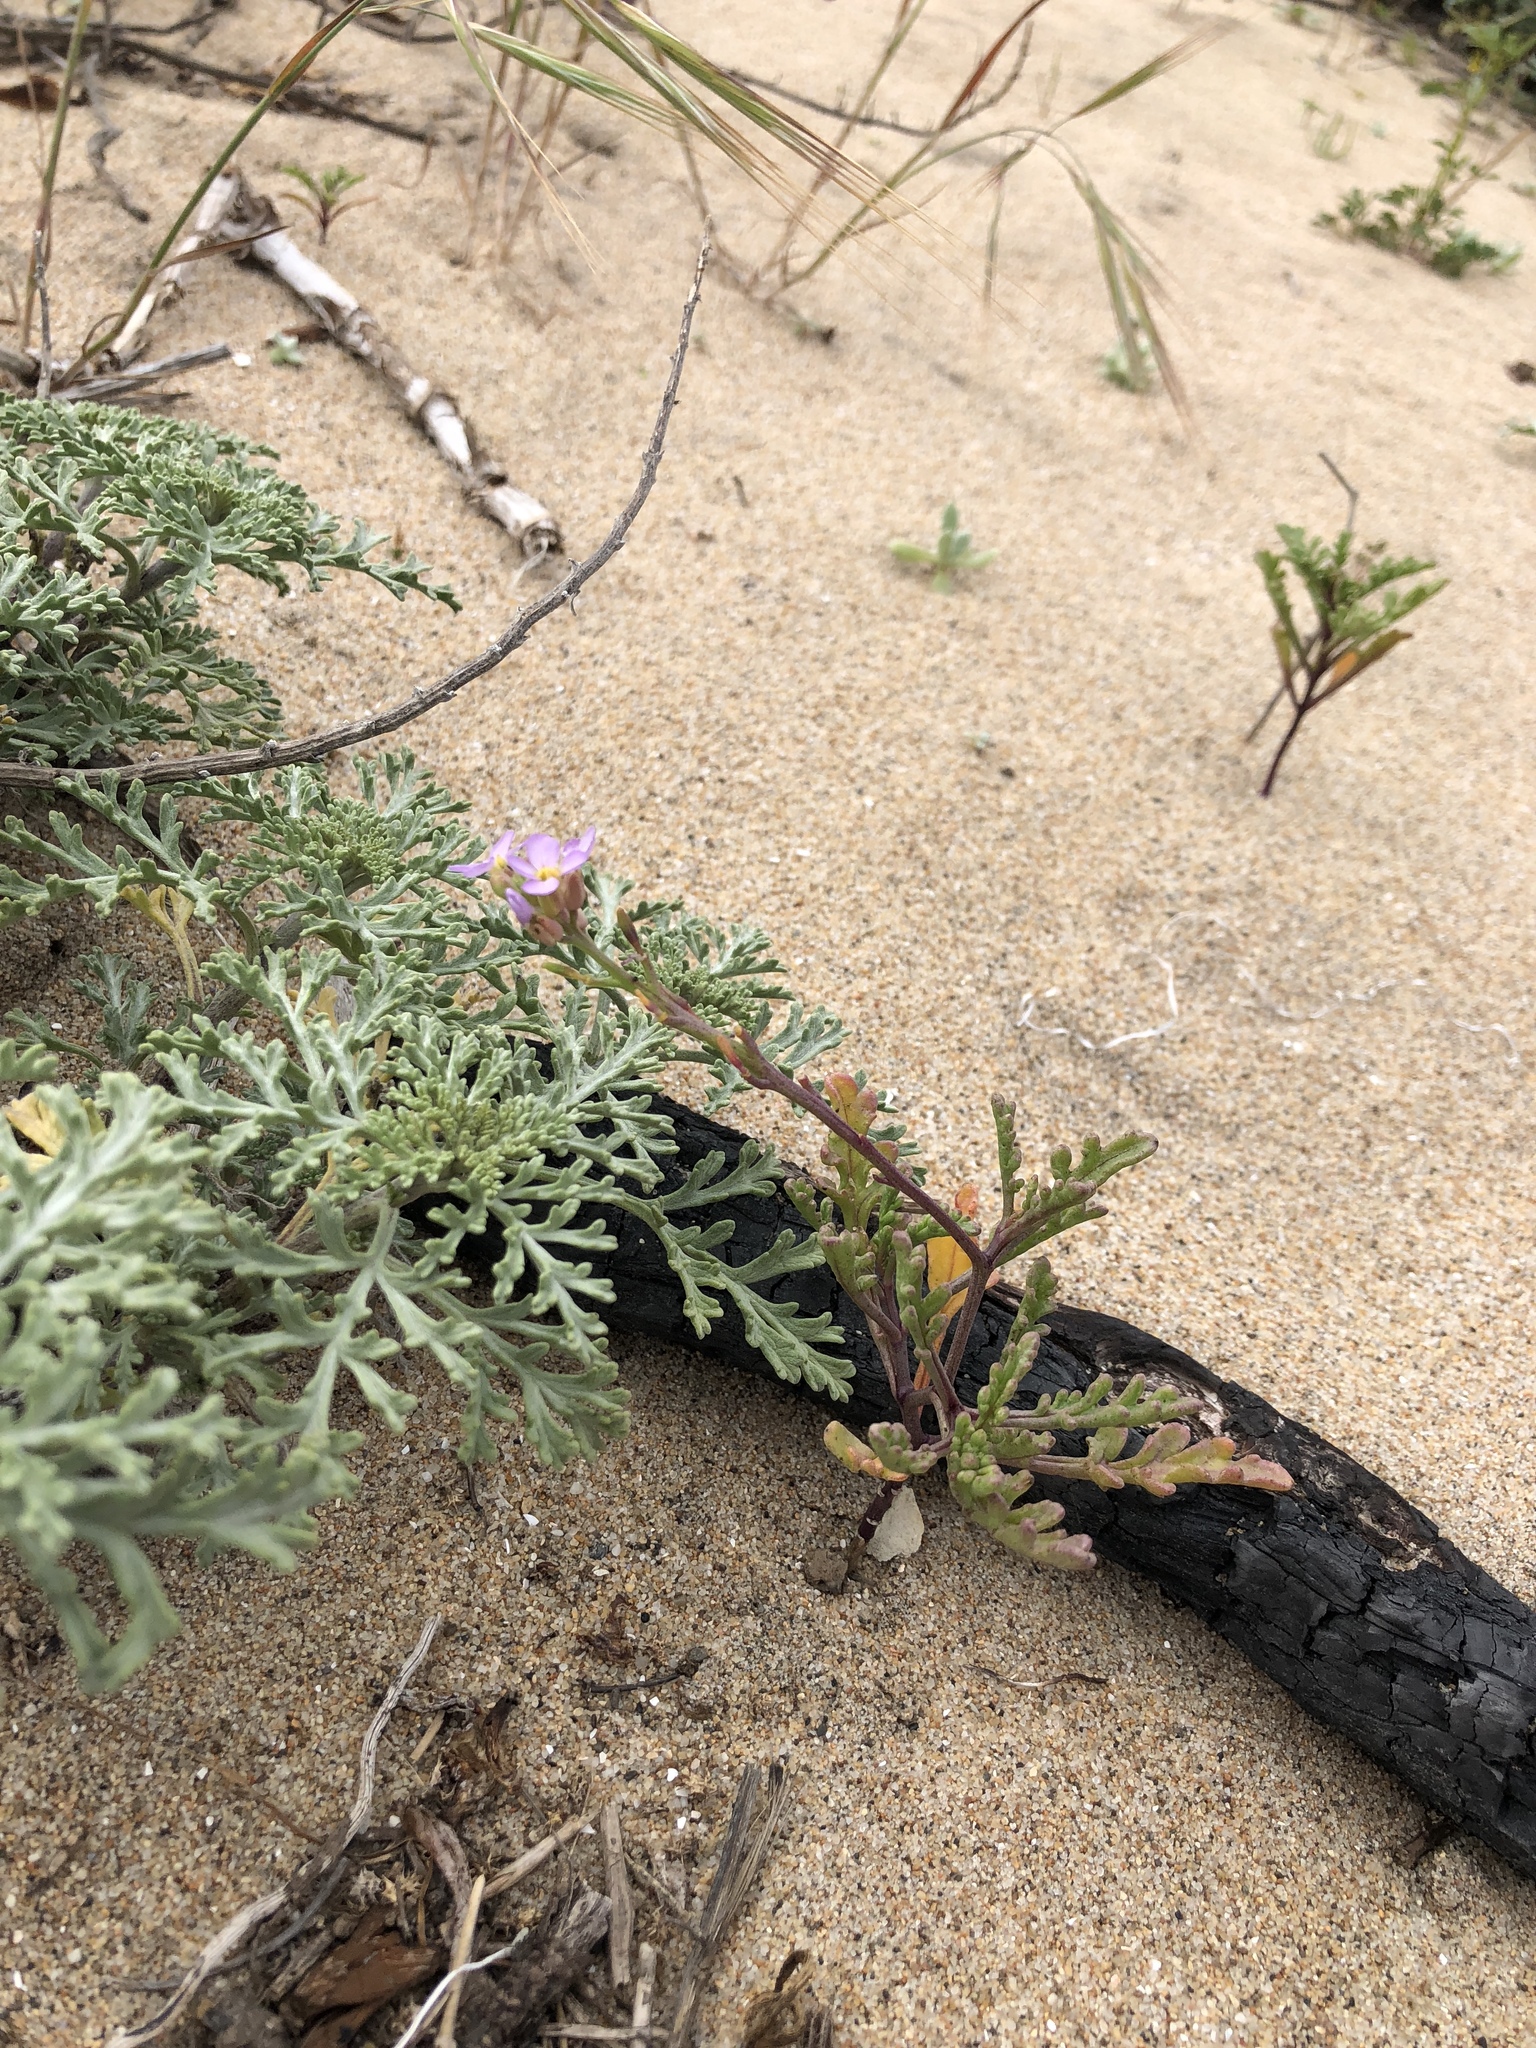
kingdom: Plantae
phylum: Tracheophyta
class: Magnoliopsida
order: Brassicales
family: Brassicaceae
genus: Cakile
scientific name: Cakile maritima
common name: Sea rocket
